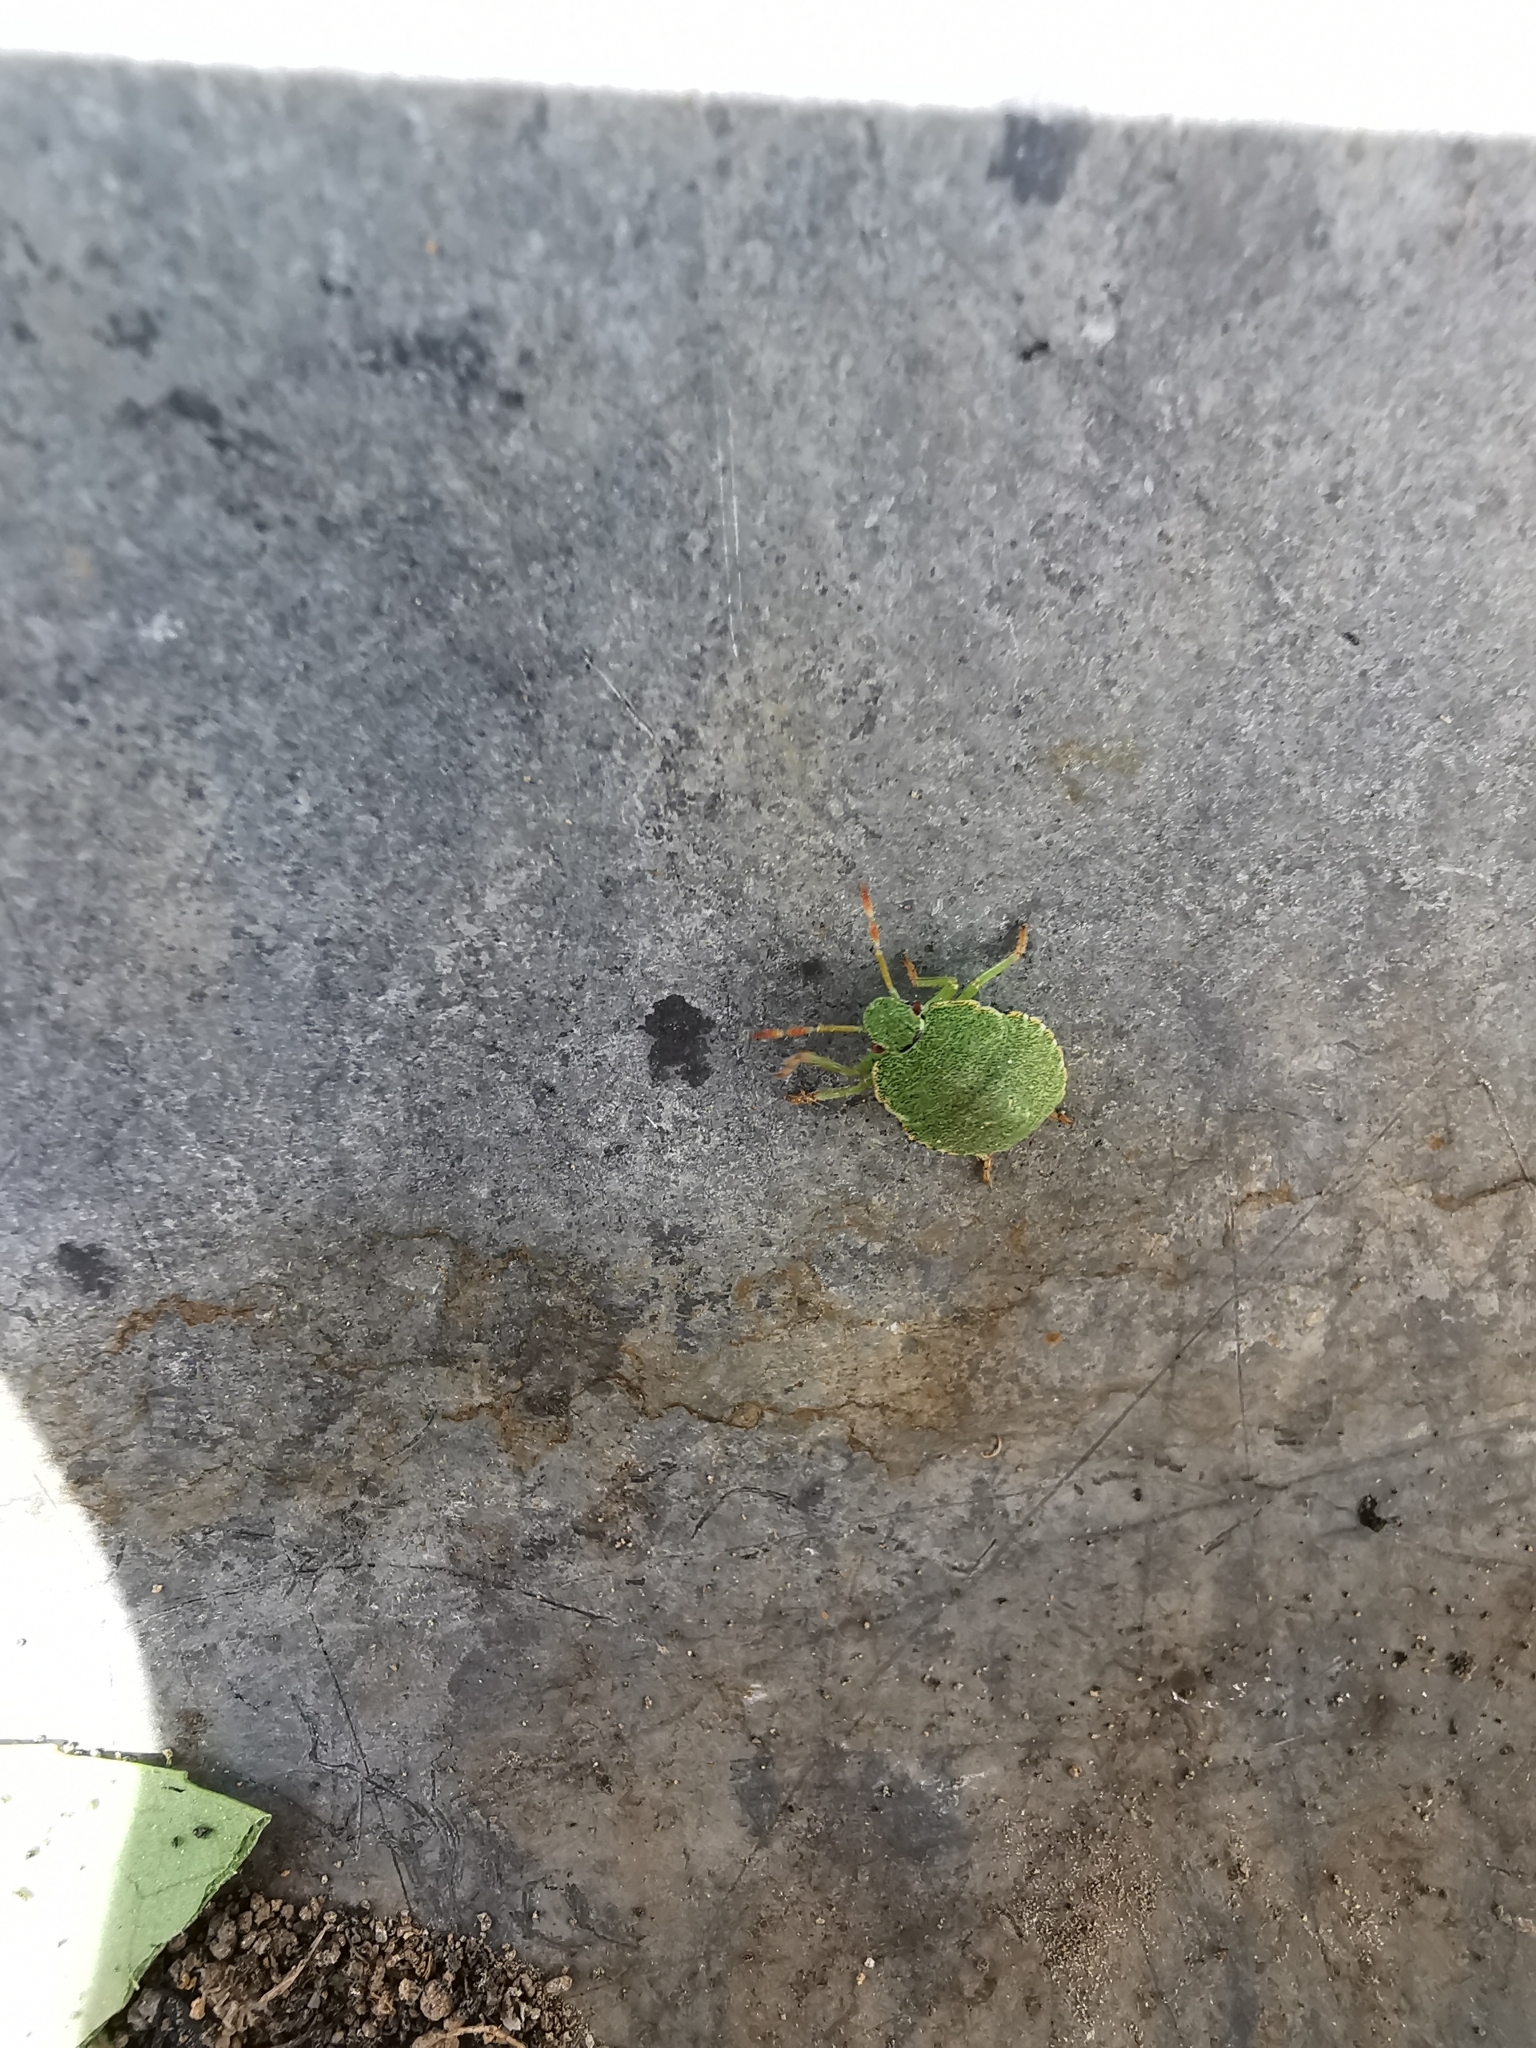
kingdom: Animalia
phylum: Arthropoda
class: Insecta
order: Hemiptera
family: Pentatomidae
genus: Palomena
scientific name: Palomena prasina
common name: Green shieldbug
